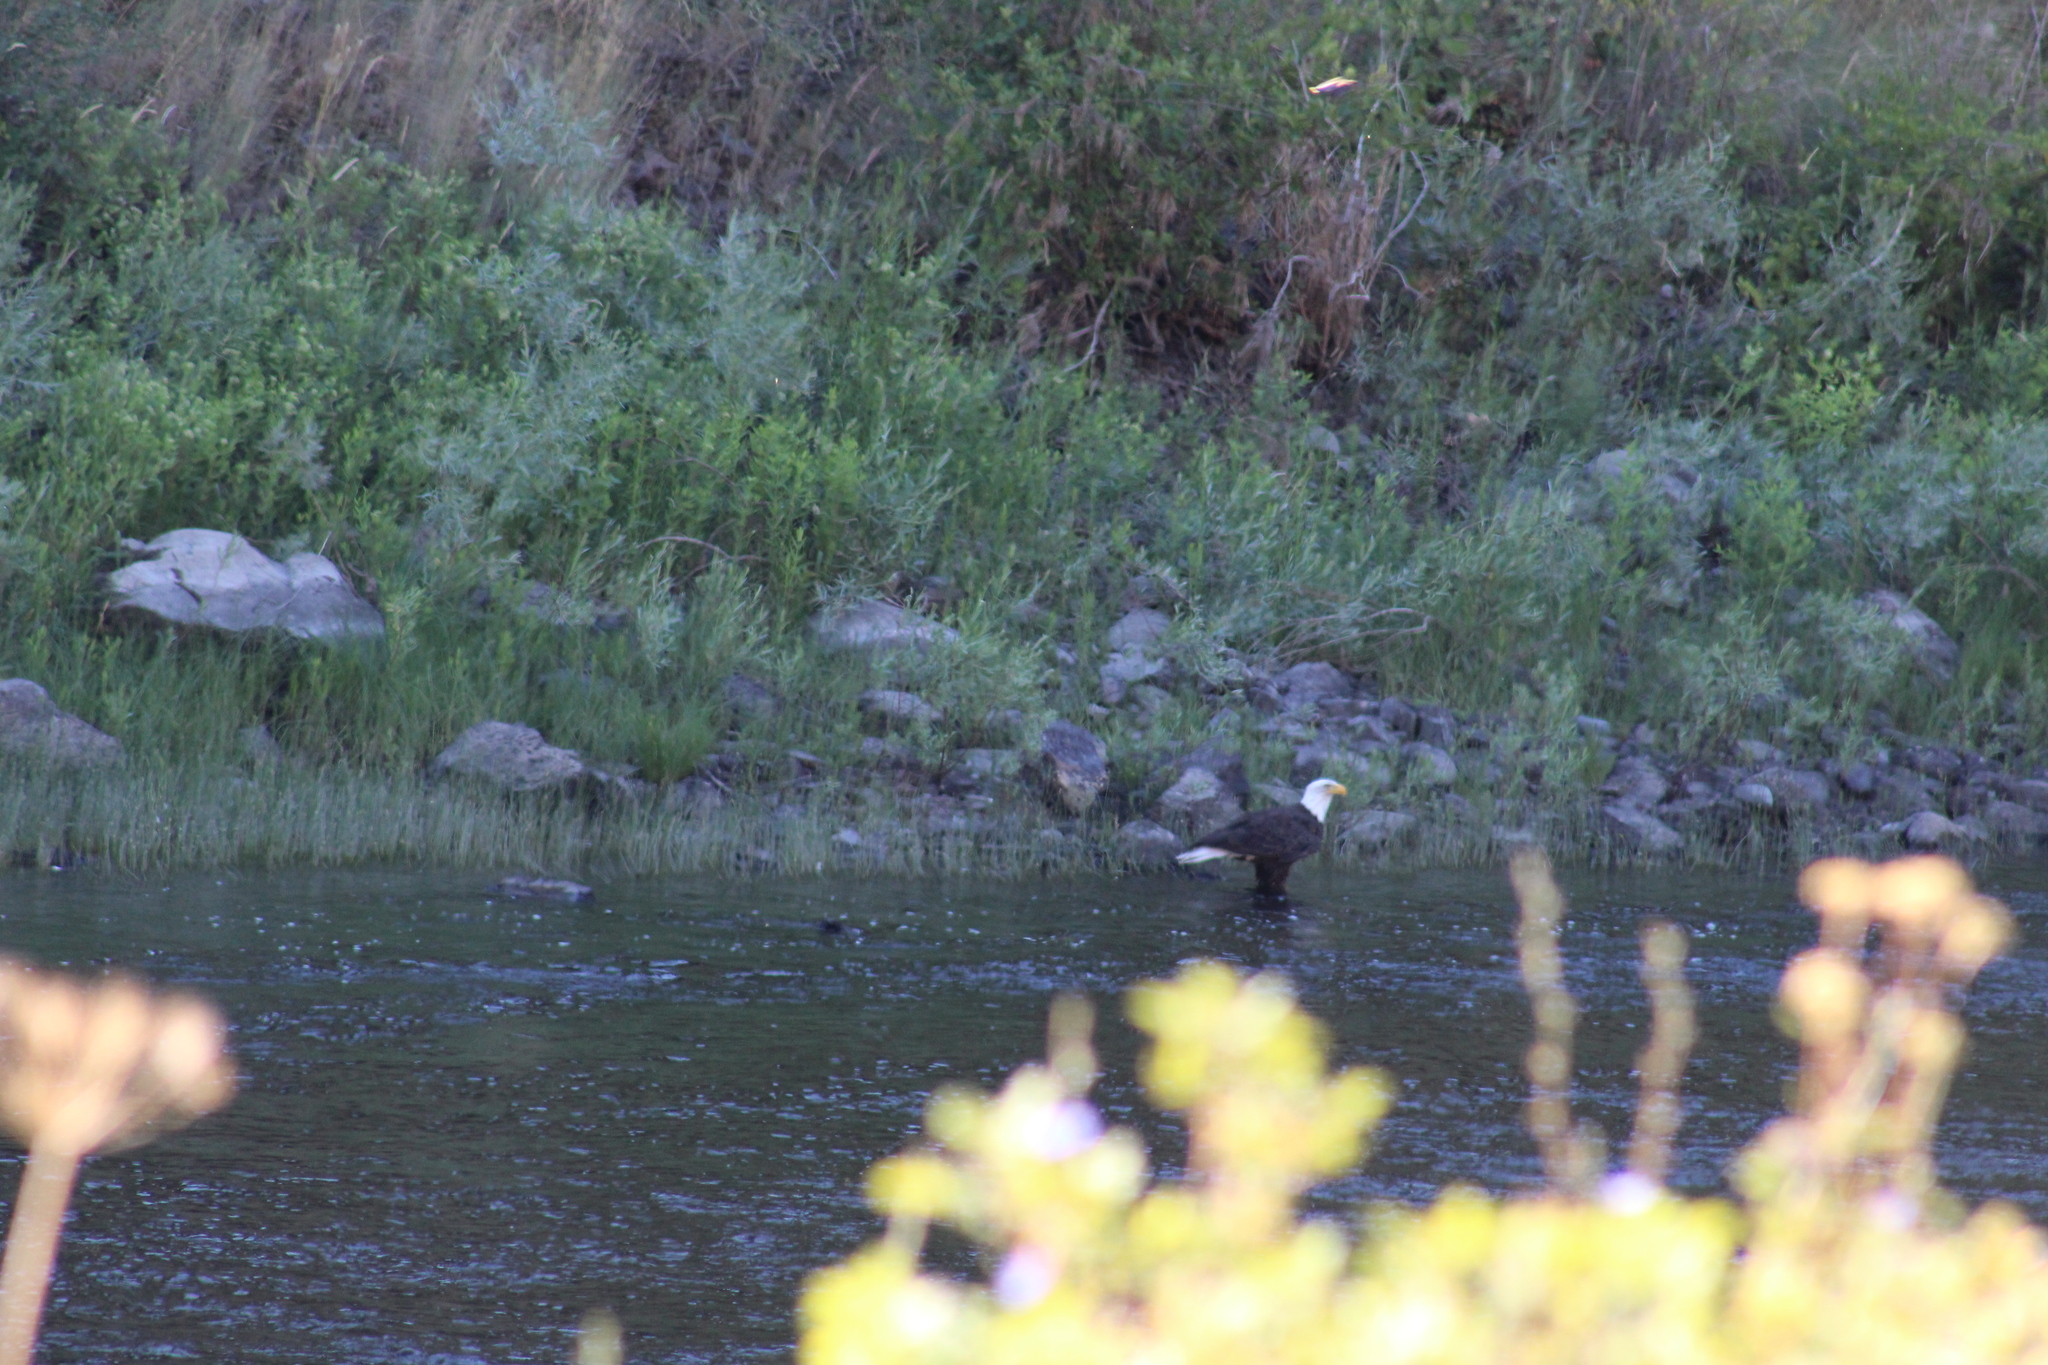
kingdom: Animalia
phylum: Chordata
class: Aves
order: Accipitriformes
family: Accipitridae
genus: Haliaeetus
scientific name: Haliaeetus leucocephalus
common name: Bald eagle
